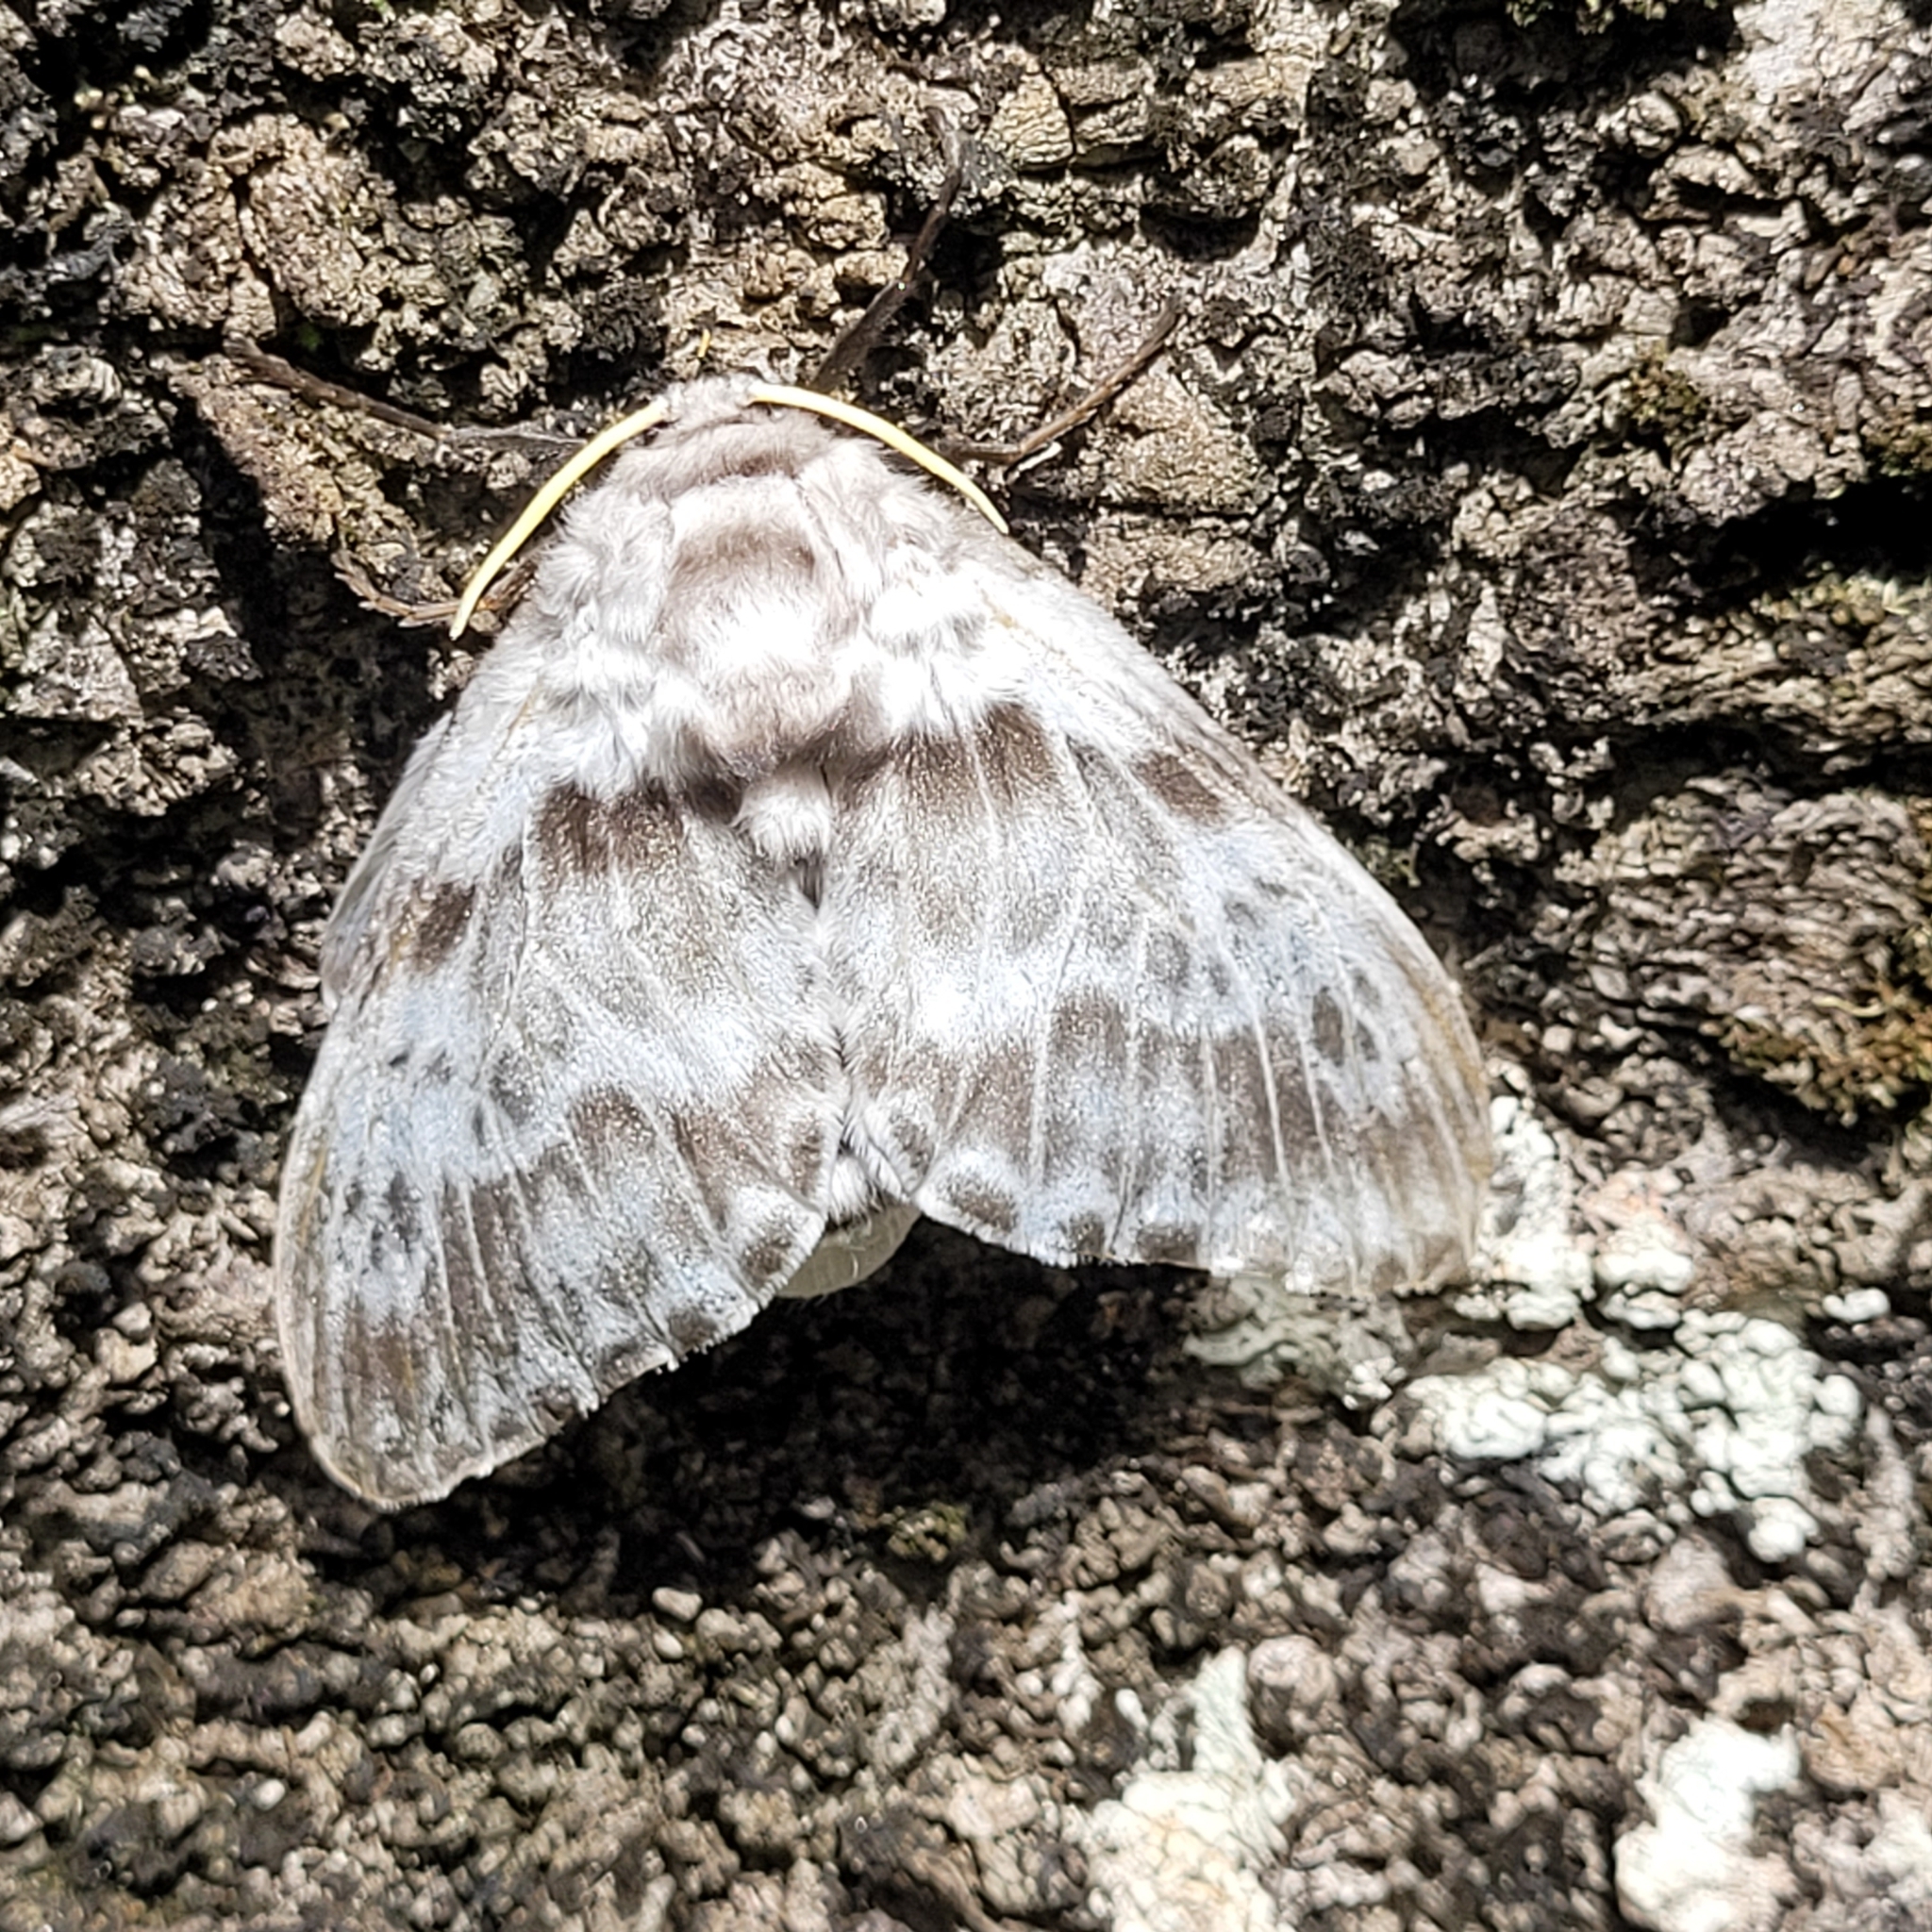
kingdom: Animalia
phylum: Arthropoda
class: Insecta
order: Lepidoptera
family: Megalopygidae
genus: Podalia
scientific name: Podalia albescens
